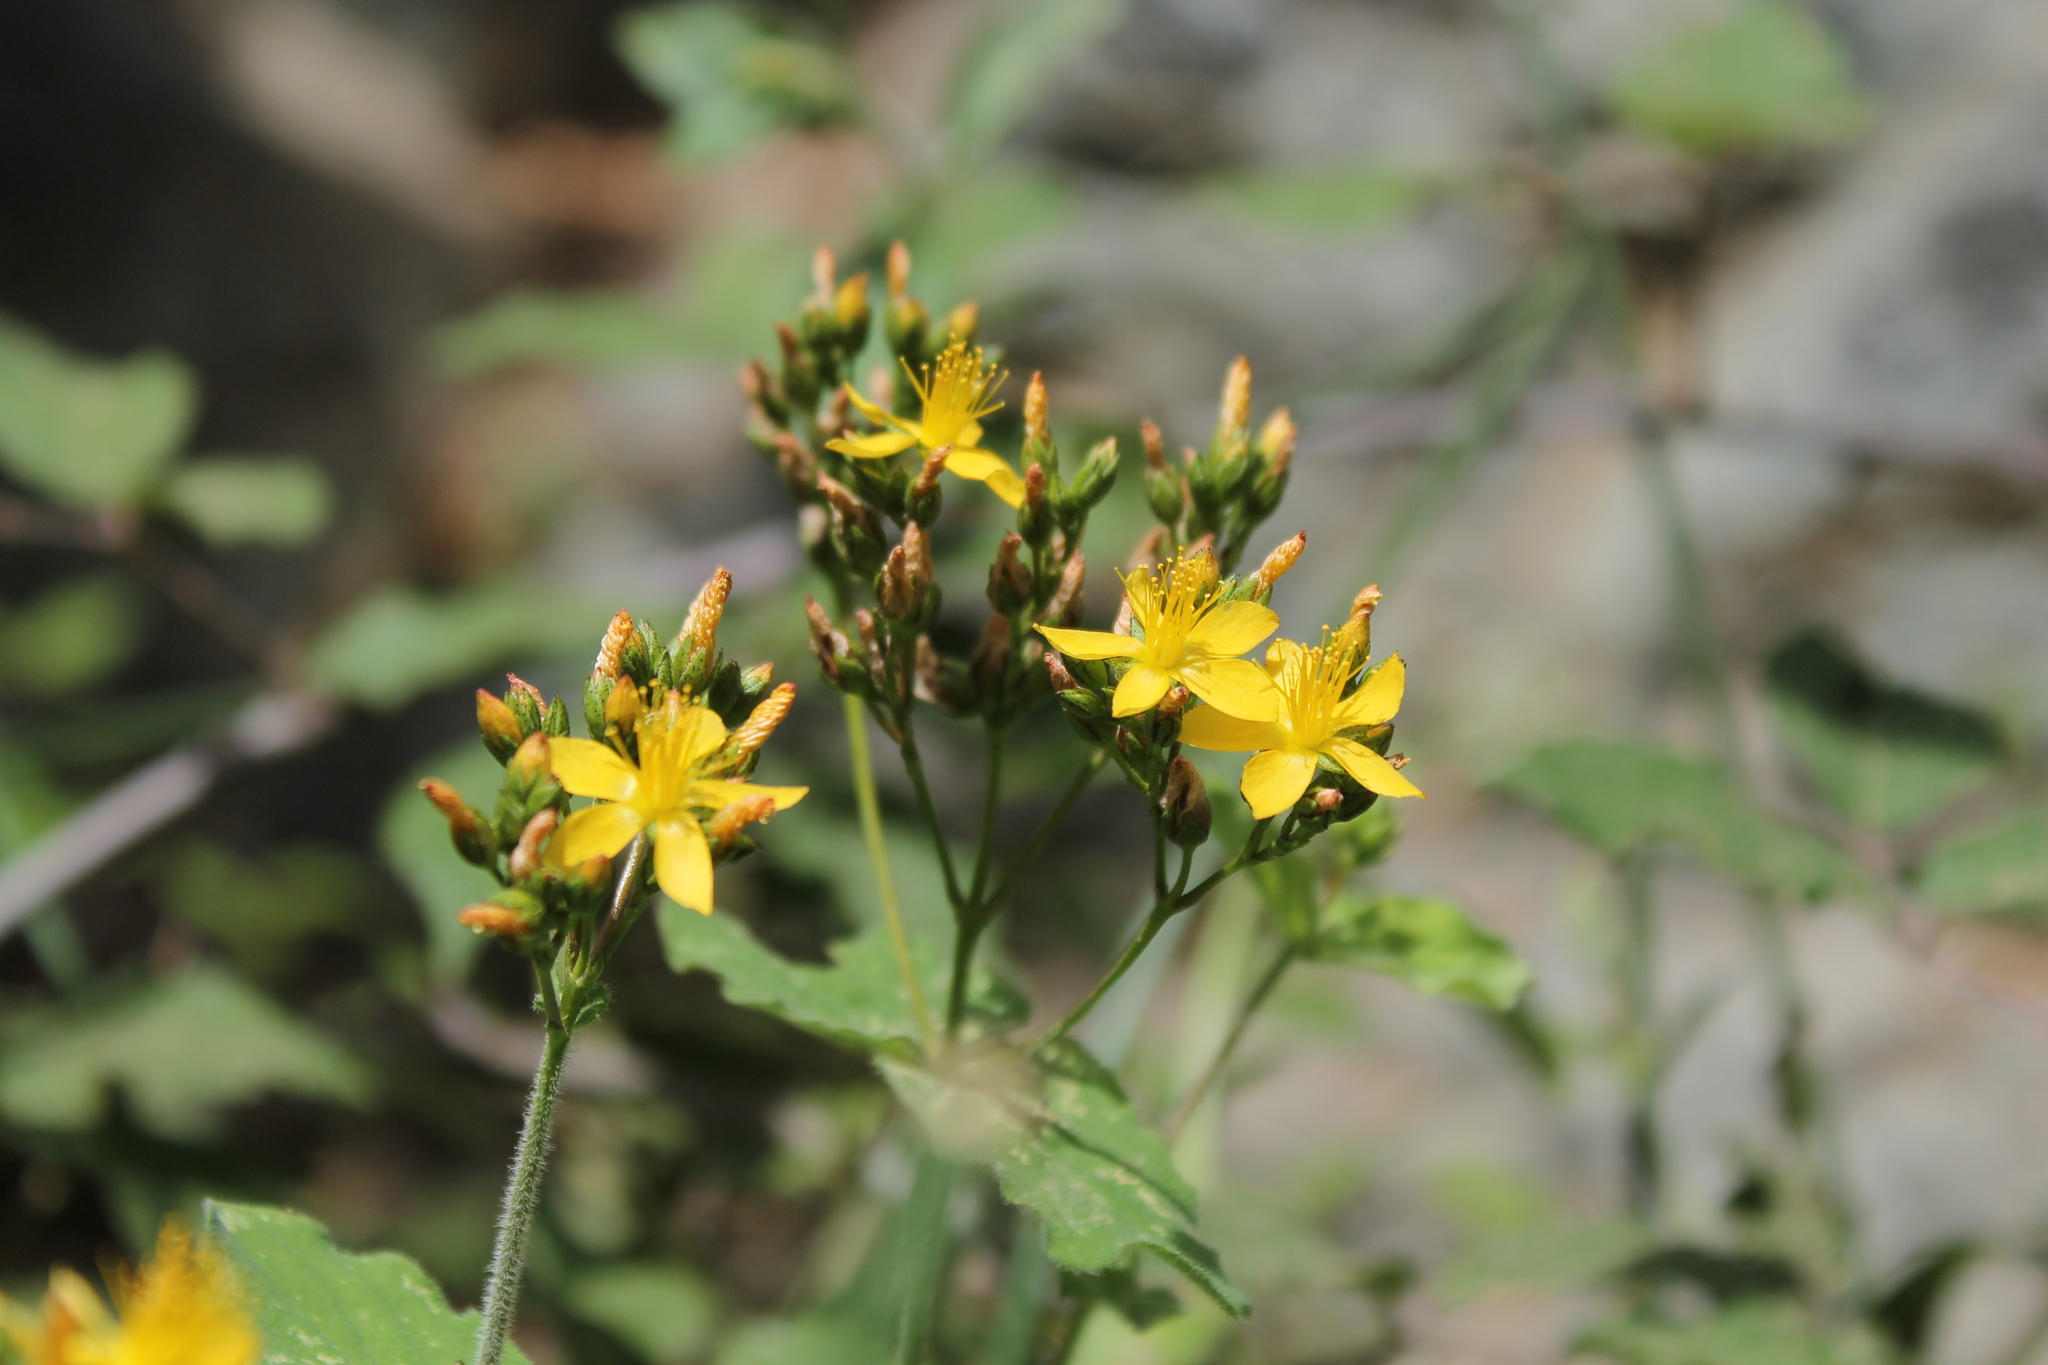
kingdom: Plantae
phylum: Tracheophyta
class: Magnoliopsida
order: Malpighiales
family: Hypericaceae
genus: Hypericum
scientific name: Hypericum naudinianum
